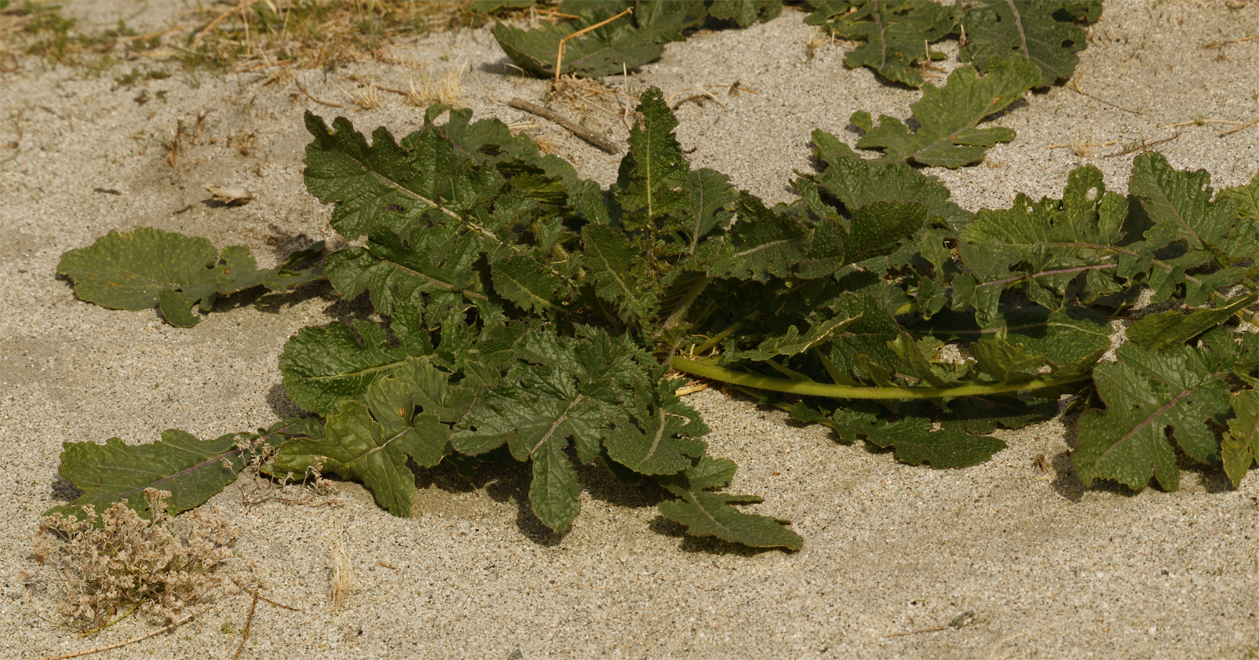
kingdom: Plantae
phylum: Tracheophyta
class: Magnoliopsida
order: Brassicales
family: Brassicaceae
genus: Brassica
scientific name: Brassica tournefortii
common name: Pale cabbage
